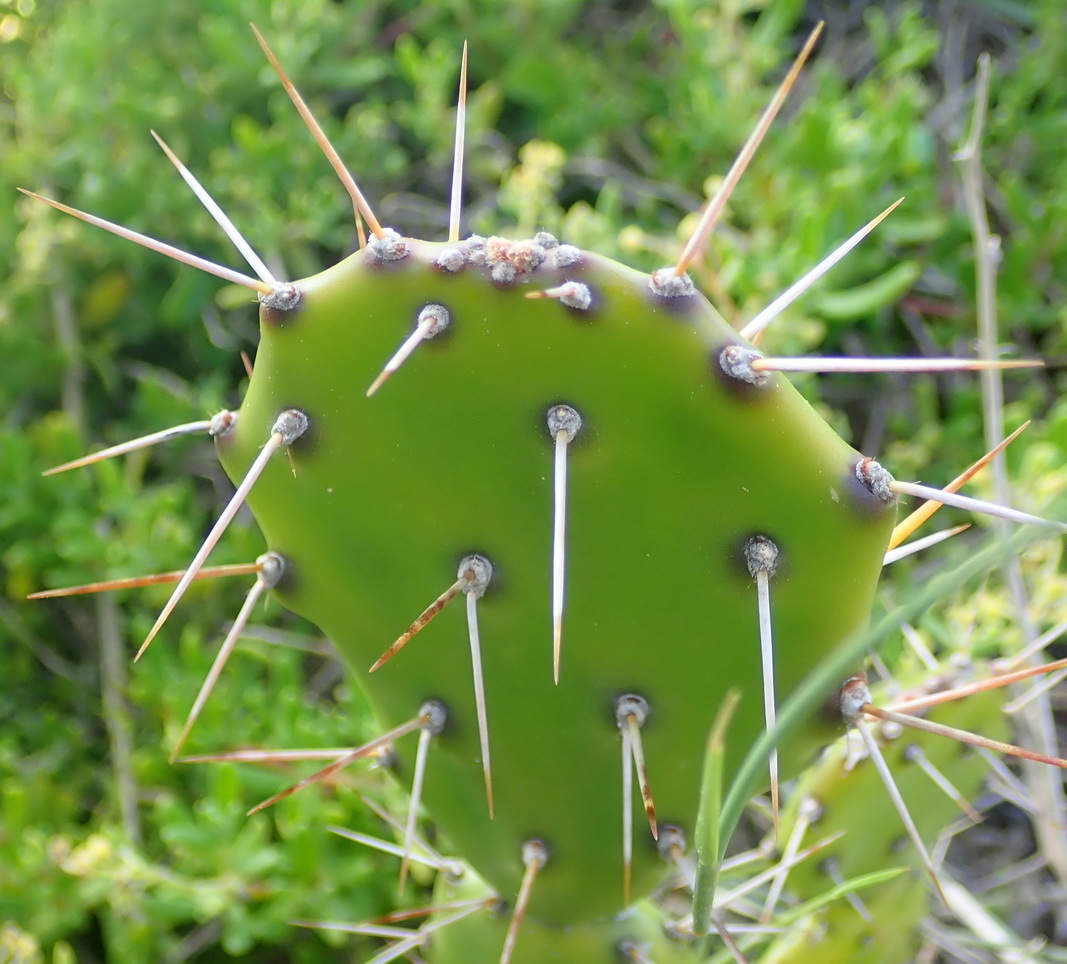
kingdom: Plantae
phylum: Tracheophyta
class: Magnoliopsida
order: Caryophyllales
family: Cactaceae
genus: Opuntia
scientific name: Opuntia ficus-indica
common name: Barbary fig
